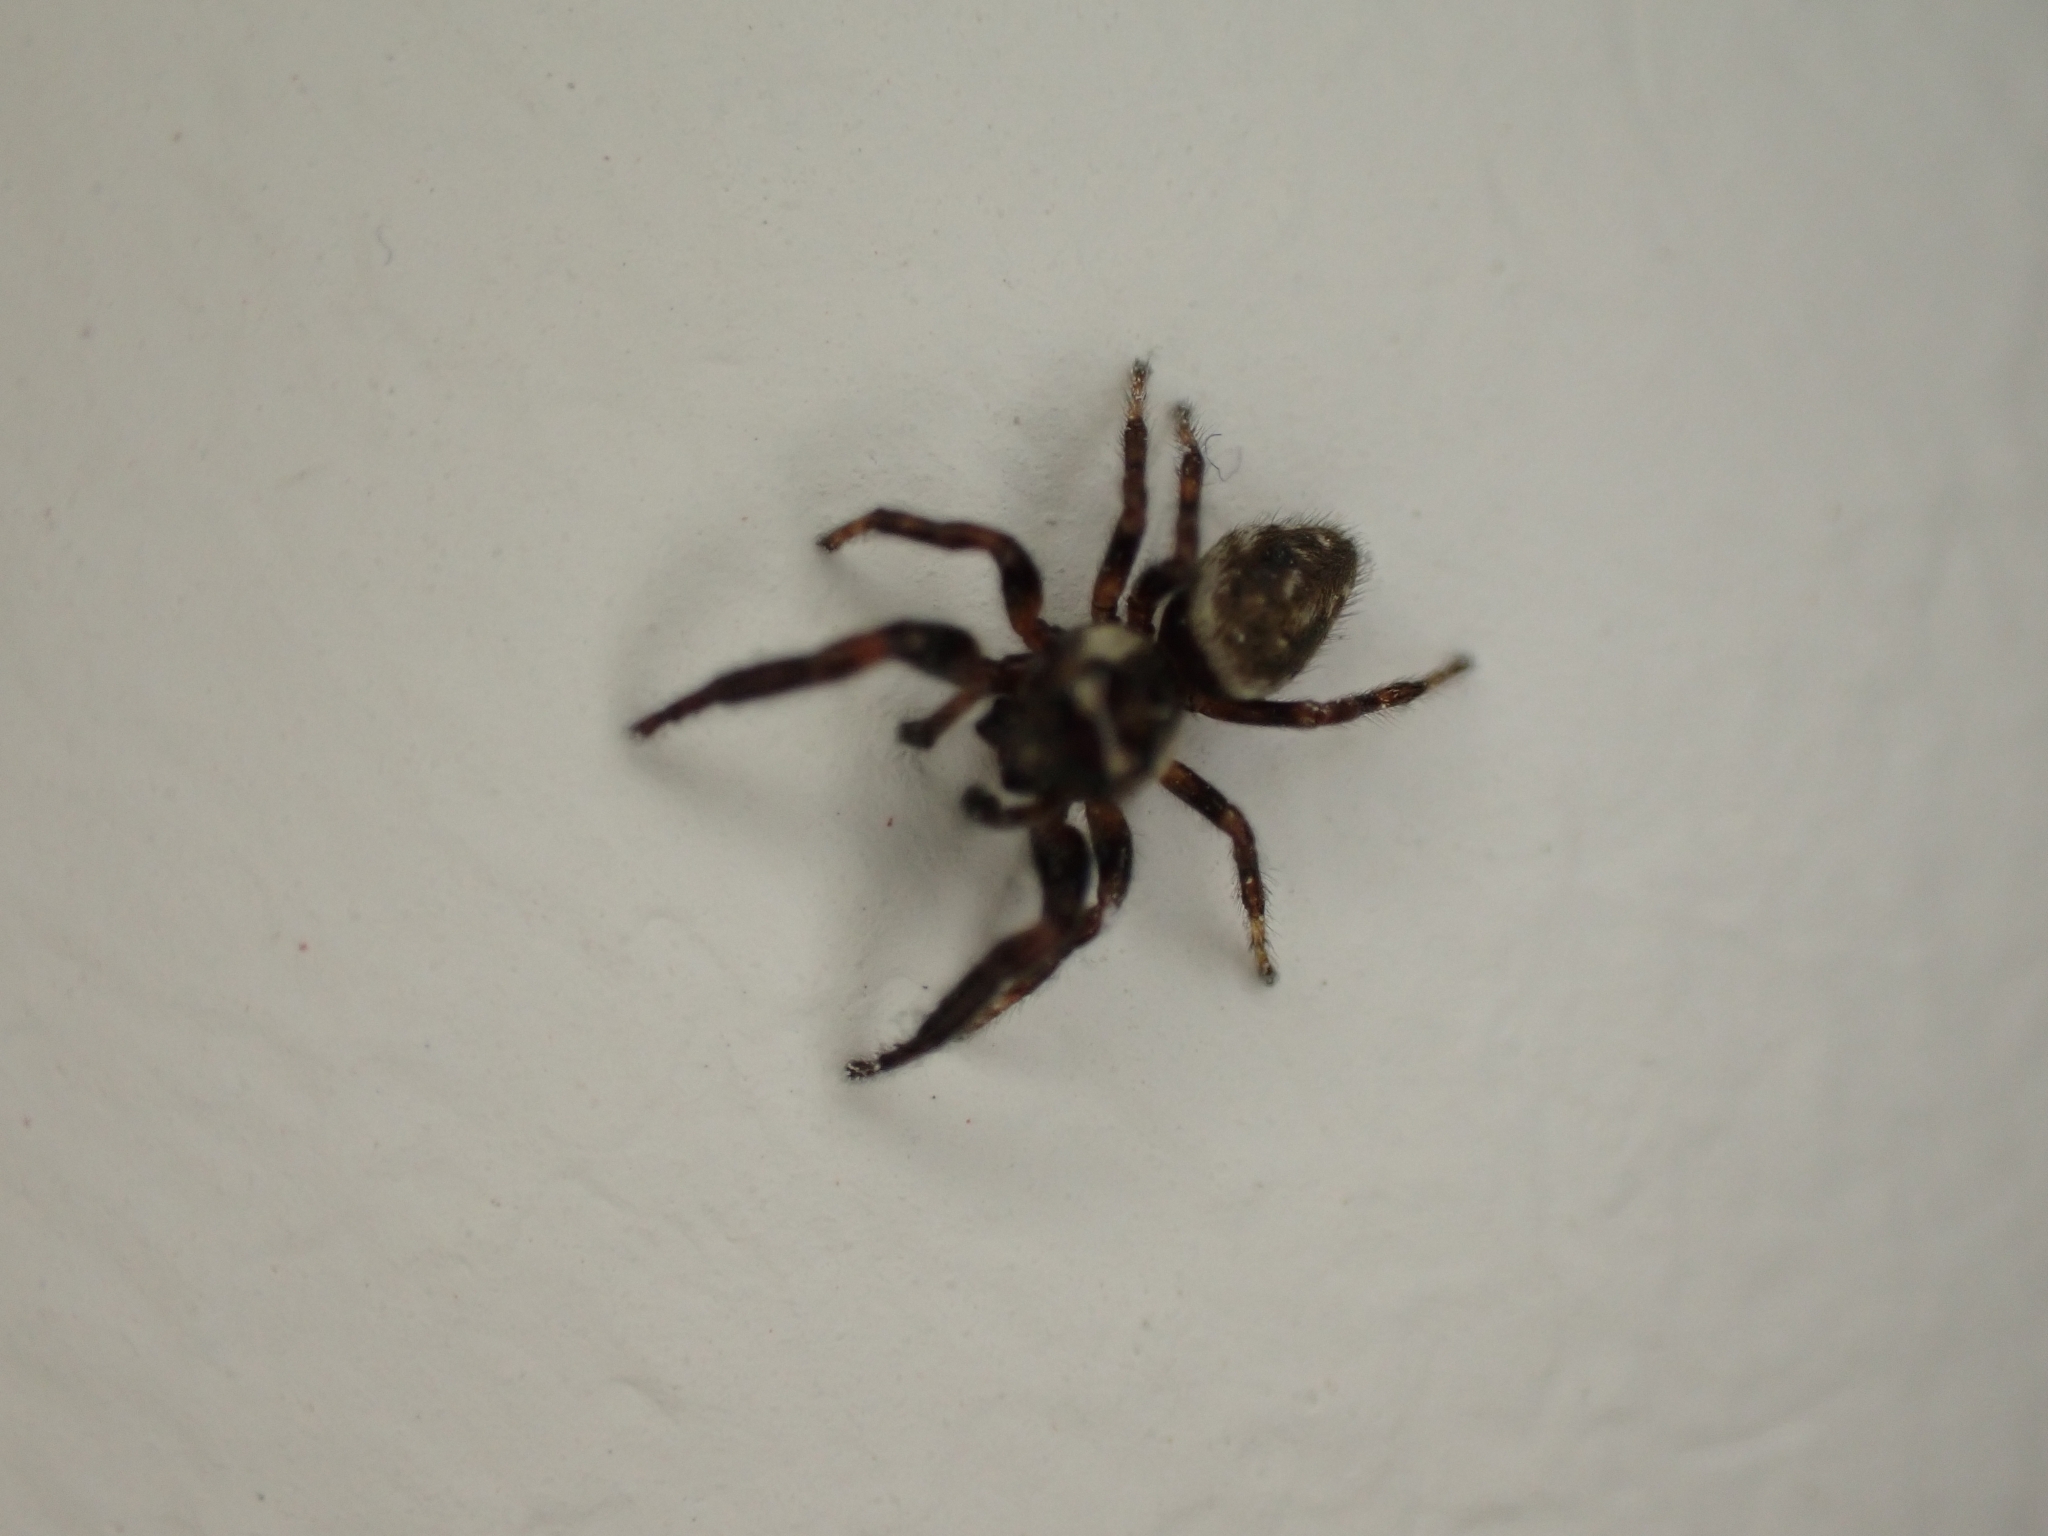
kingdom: Animalia
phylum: Arthropoda
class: Arachnida
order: Araneae
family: Salticidae
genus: Macaroeris
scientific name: Macaroeris nidicolens
